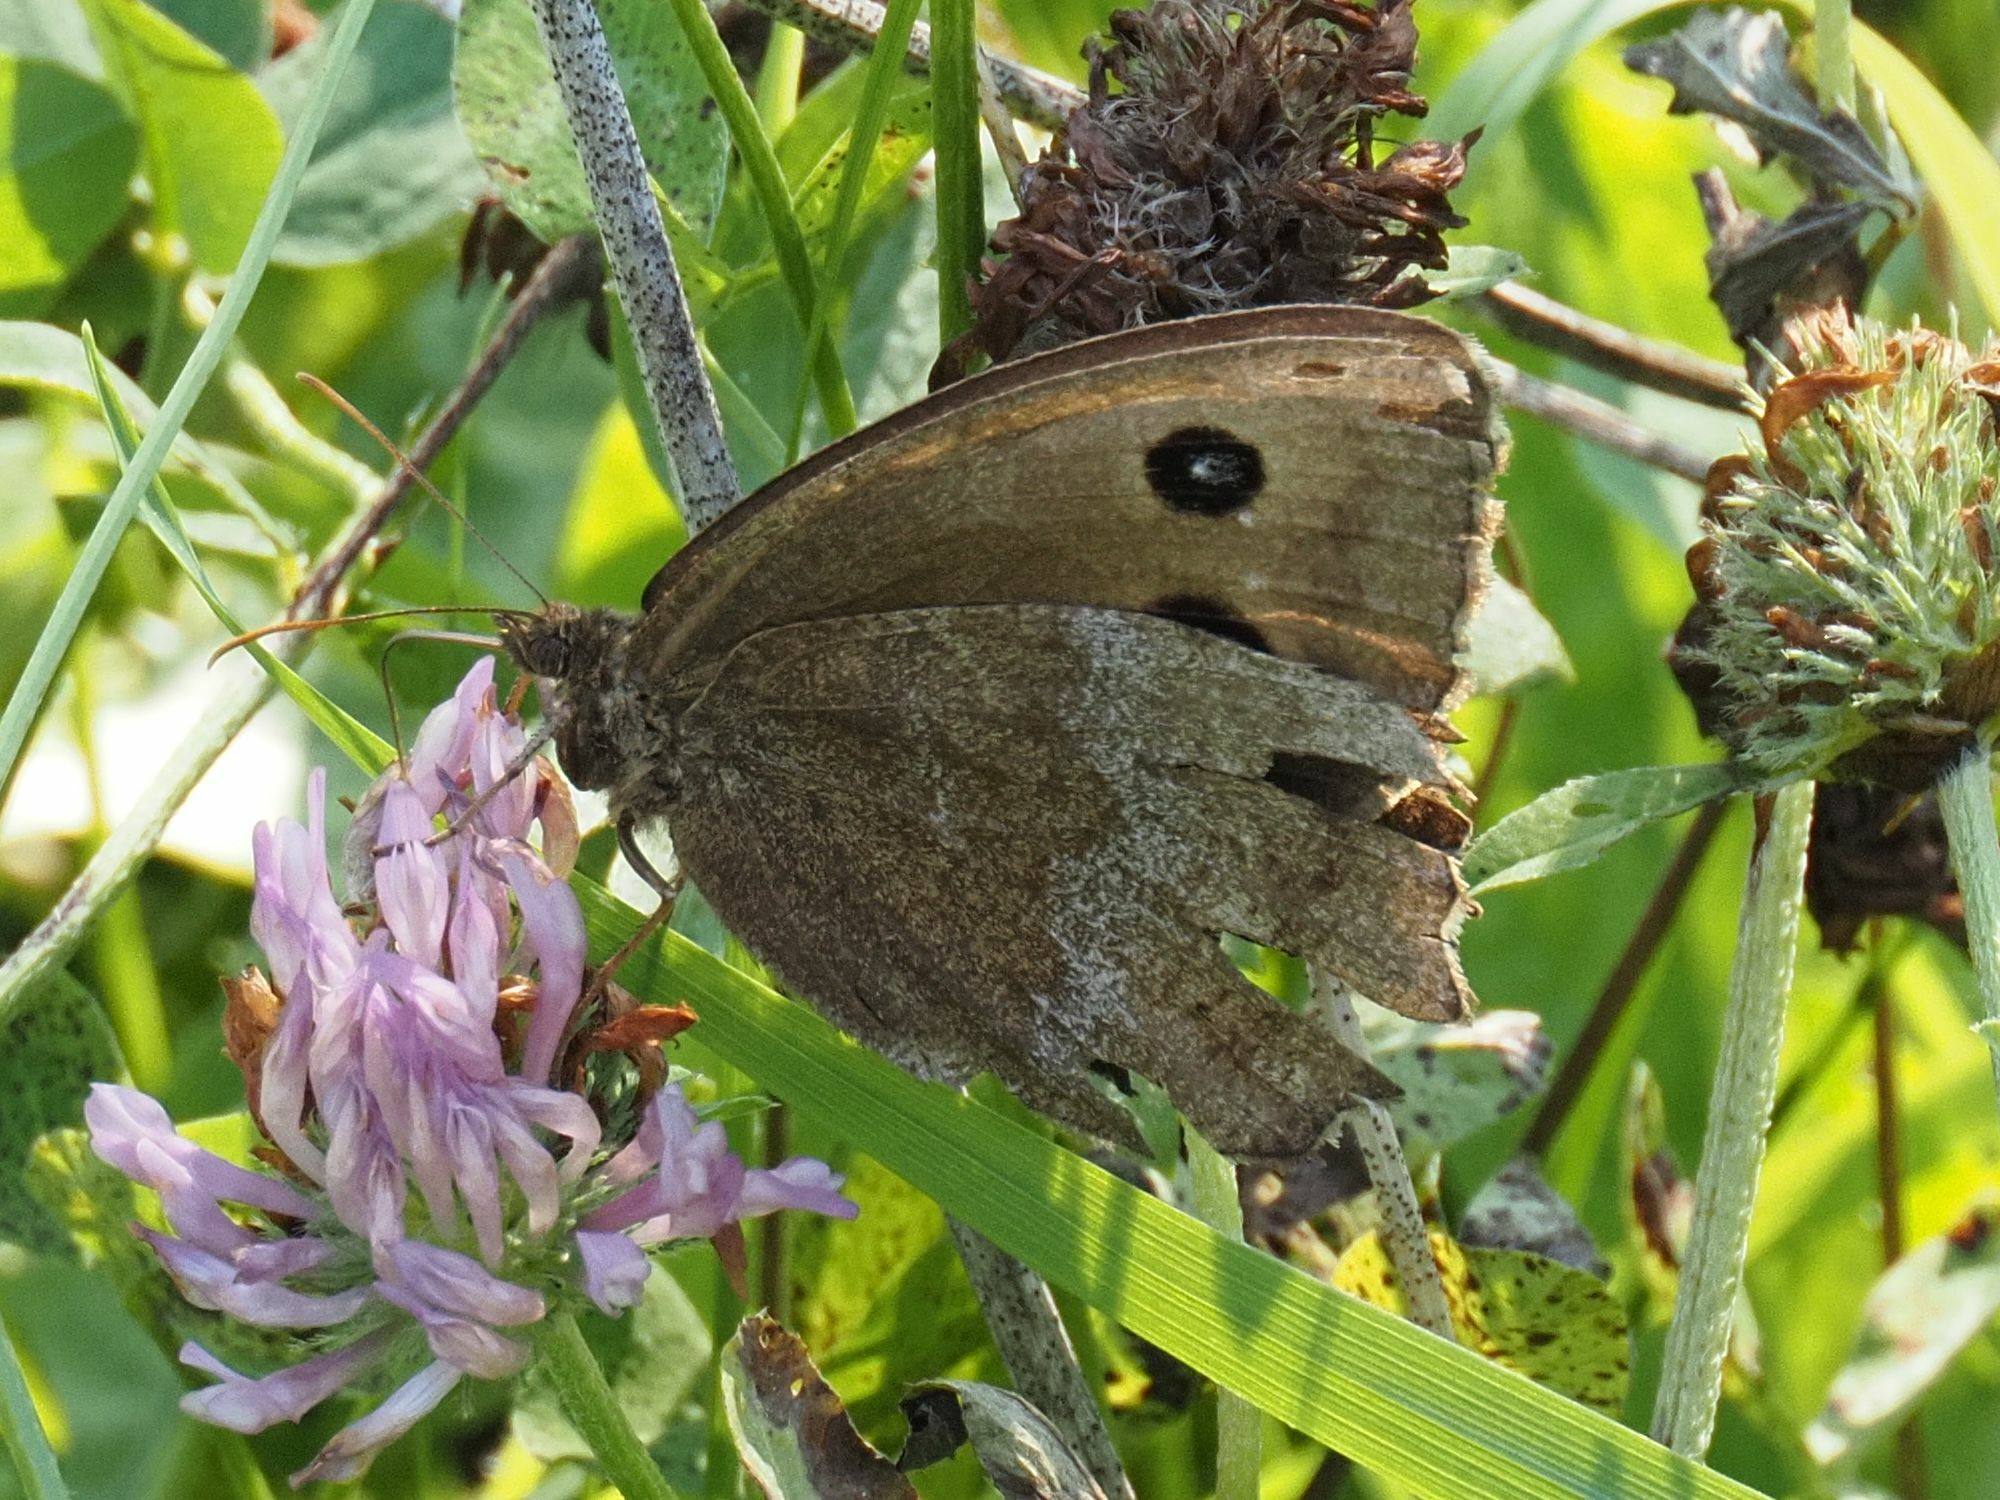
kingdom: Animalia
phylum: Arthropoda
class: Insecta
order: Lepidoptera
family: Nymphalidae
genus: Minois
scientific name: Minois dryas
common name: Dryad
